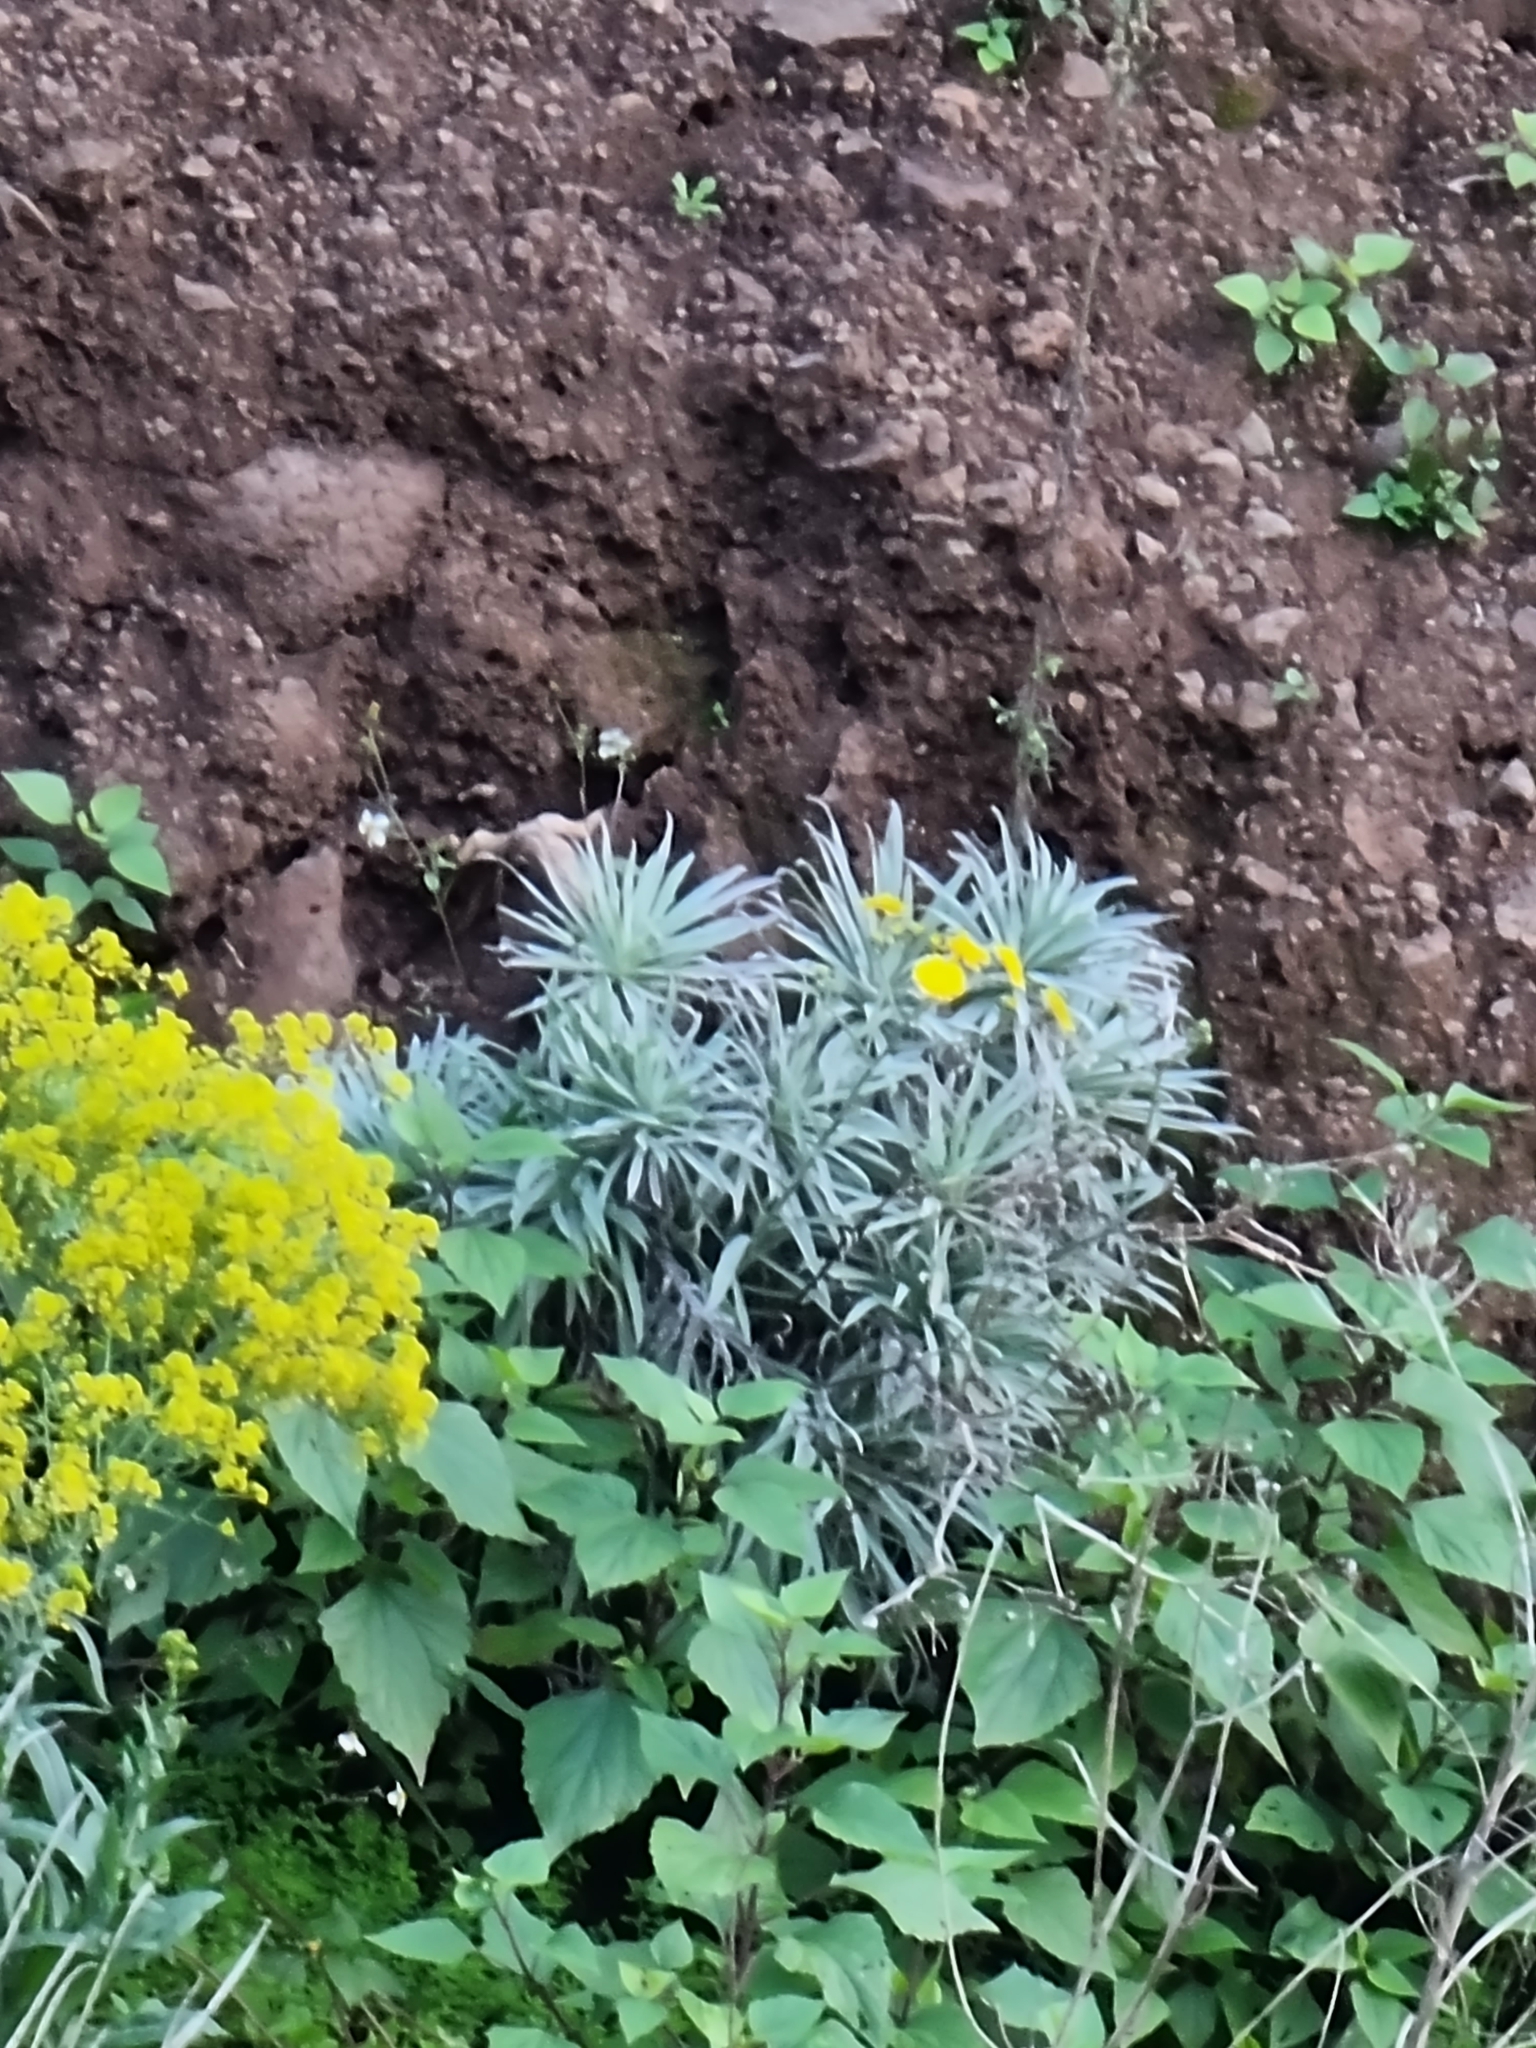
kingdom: Plantae
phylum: Tracheophyta
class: Magnoliopsida
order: Asterales
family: Asteraceae
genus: Andryala
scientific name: Andryala glandulosa
